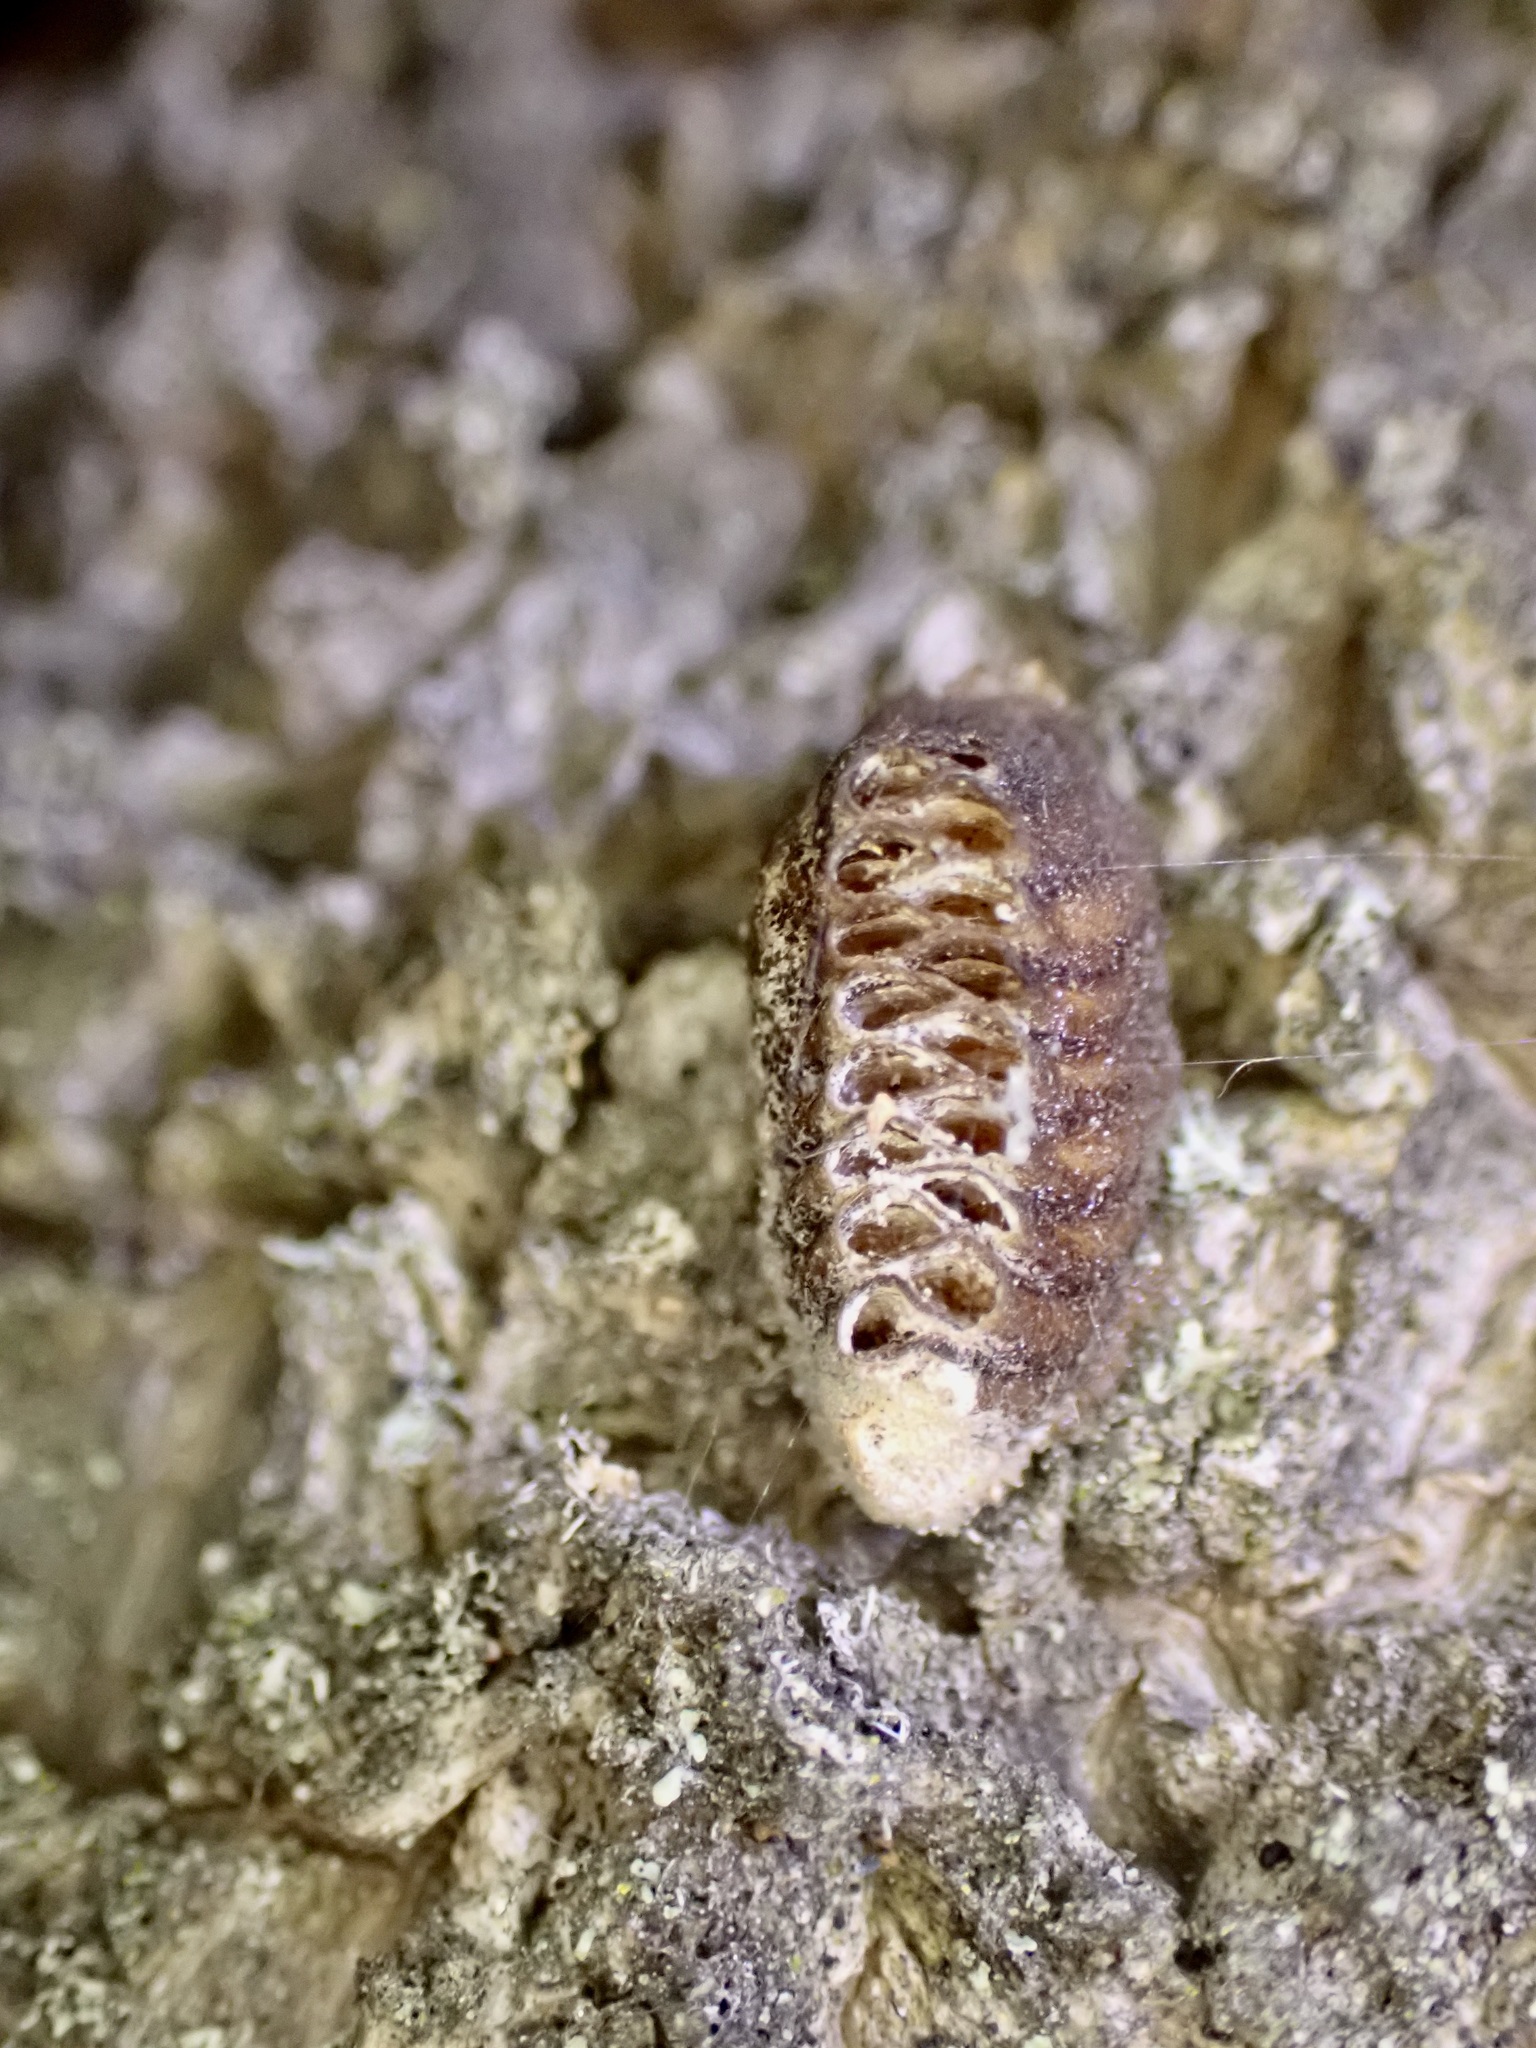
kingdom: Animalia
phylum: Arthropoda
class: Insecta
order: Mantodea
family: Mantidae
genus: Orthodera
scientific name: Orthodera novaezealandiae
